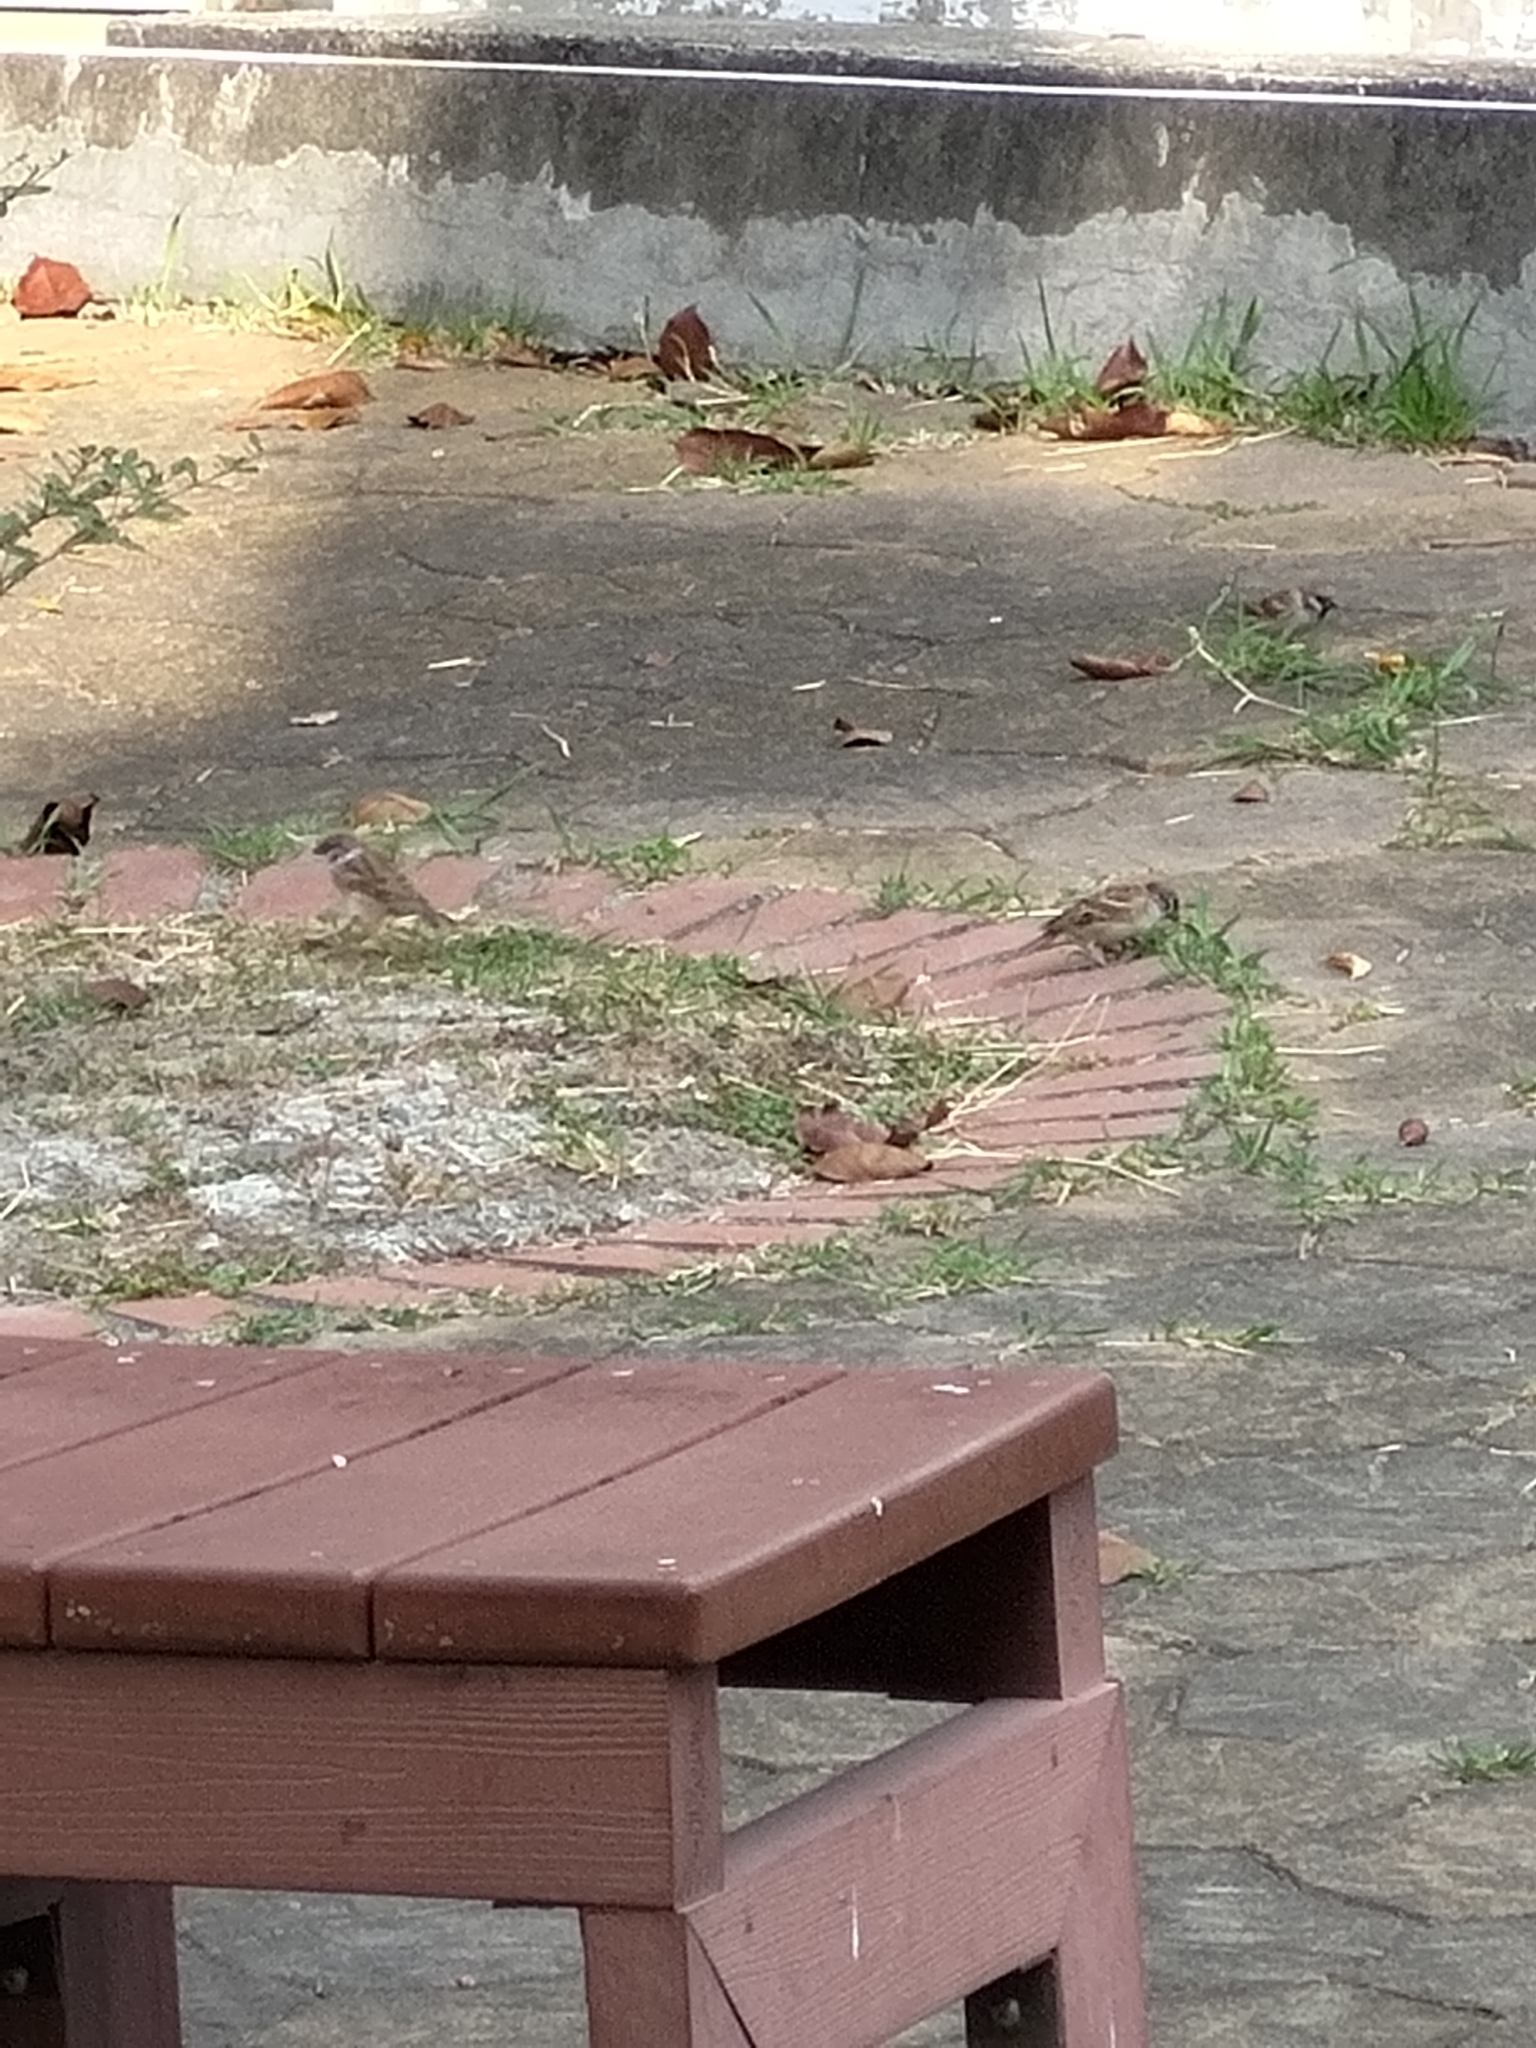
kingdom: Animalia
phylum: Chordata
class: Aves
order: Passeriformes
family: Passeridae
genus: Passer
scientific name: Passer montanus
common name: Eurasian tree sparrow
